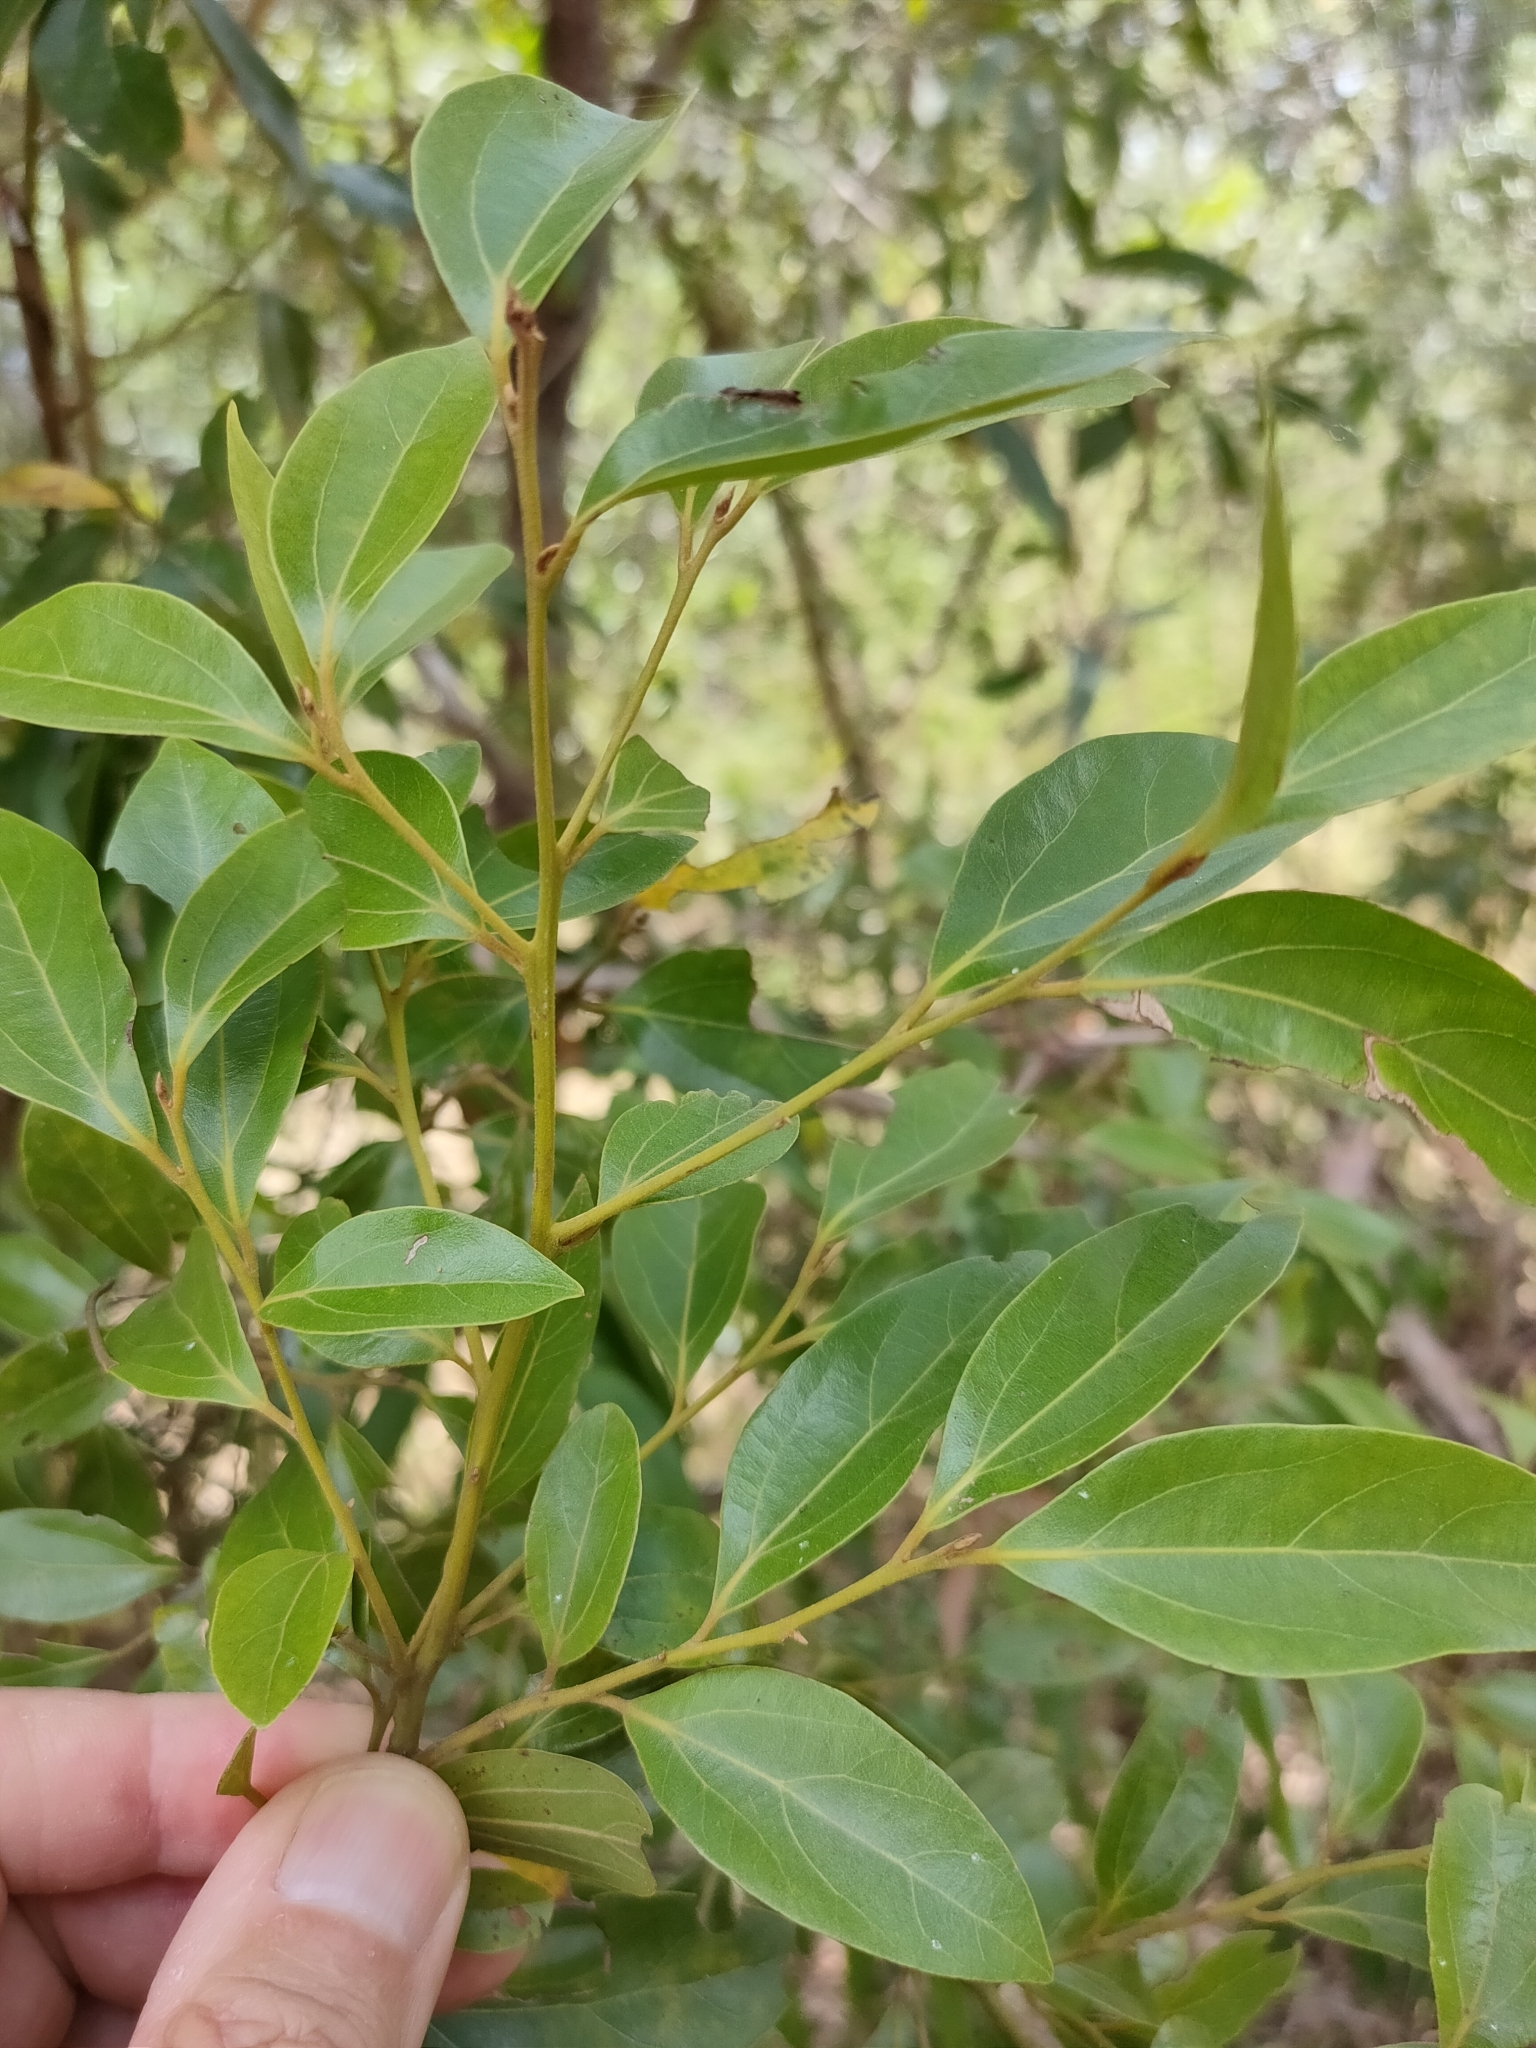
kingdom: Plantae
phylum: Tracheophyta
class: Magnoliopsida
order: Laurales
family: Lauraceae
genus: Cryptocarya
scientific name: Cryptocarya triplinervis
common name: Three-vein cryptocarya
